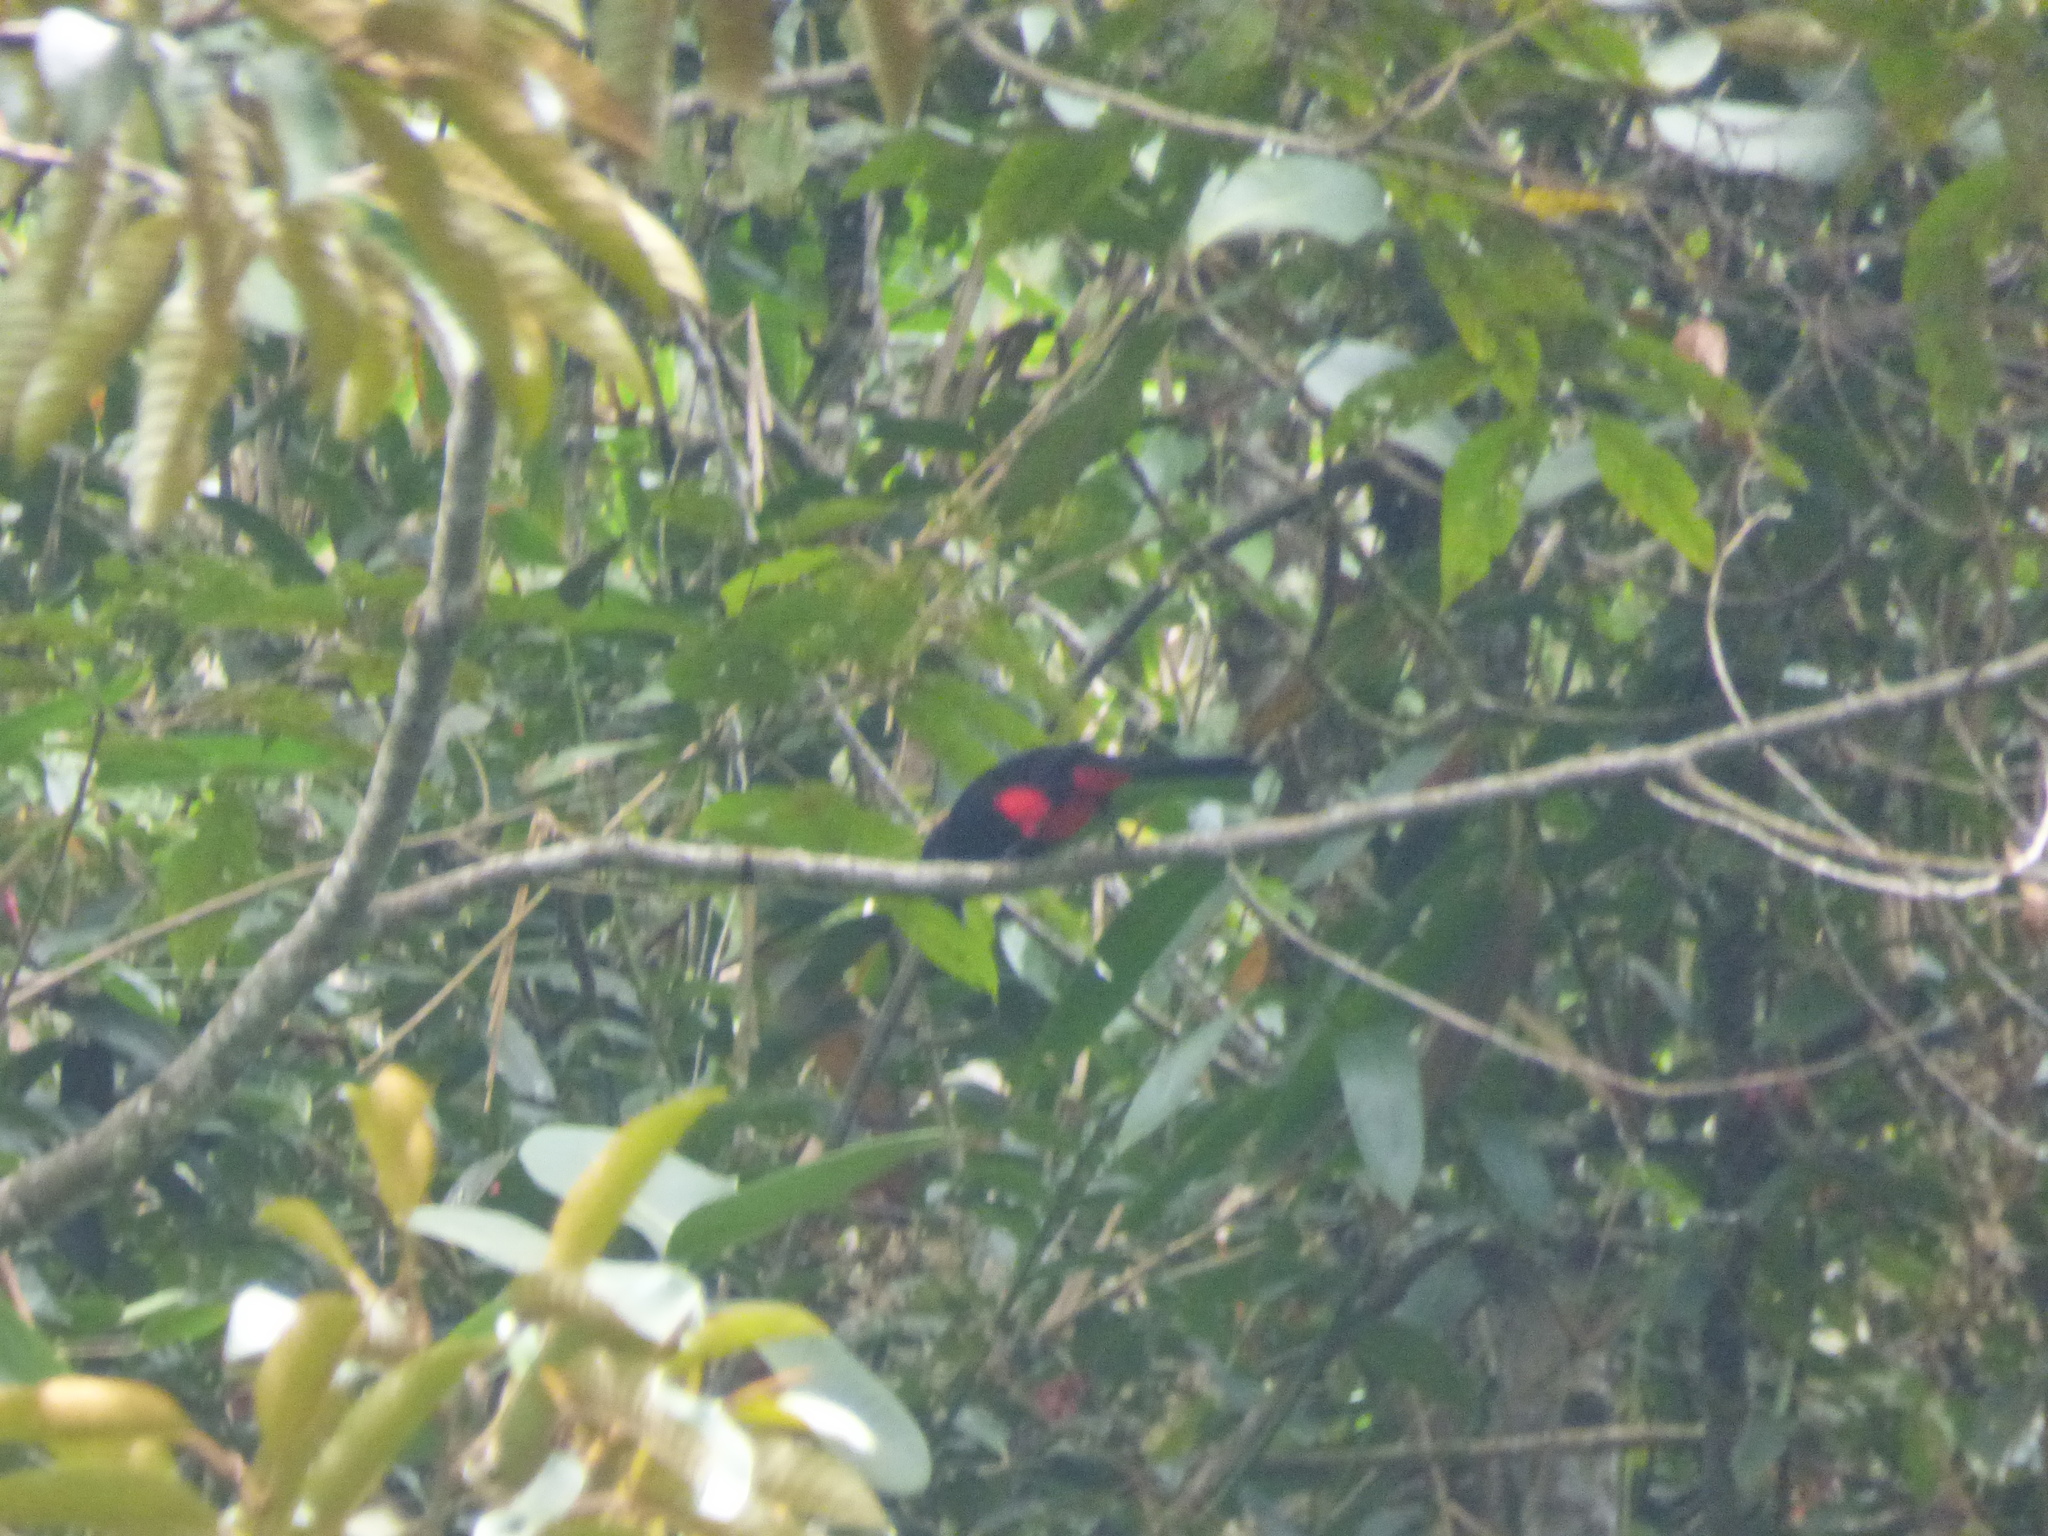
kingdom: Animalia
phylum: Chordata
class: Aves
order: Passeriformes
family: Icteridae
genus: Hypopyrrhus
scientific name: Hypopyrrhus pyrohypogaster
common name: Red-bellied grackle
